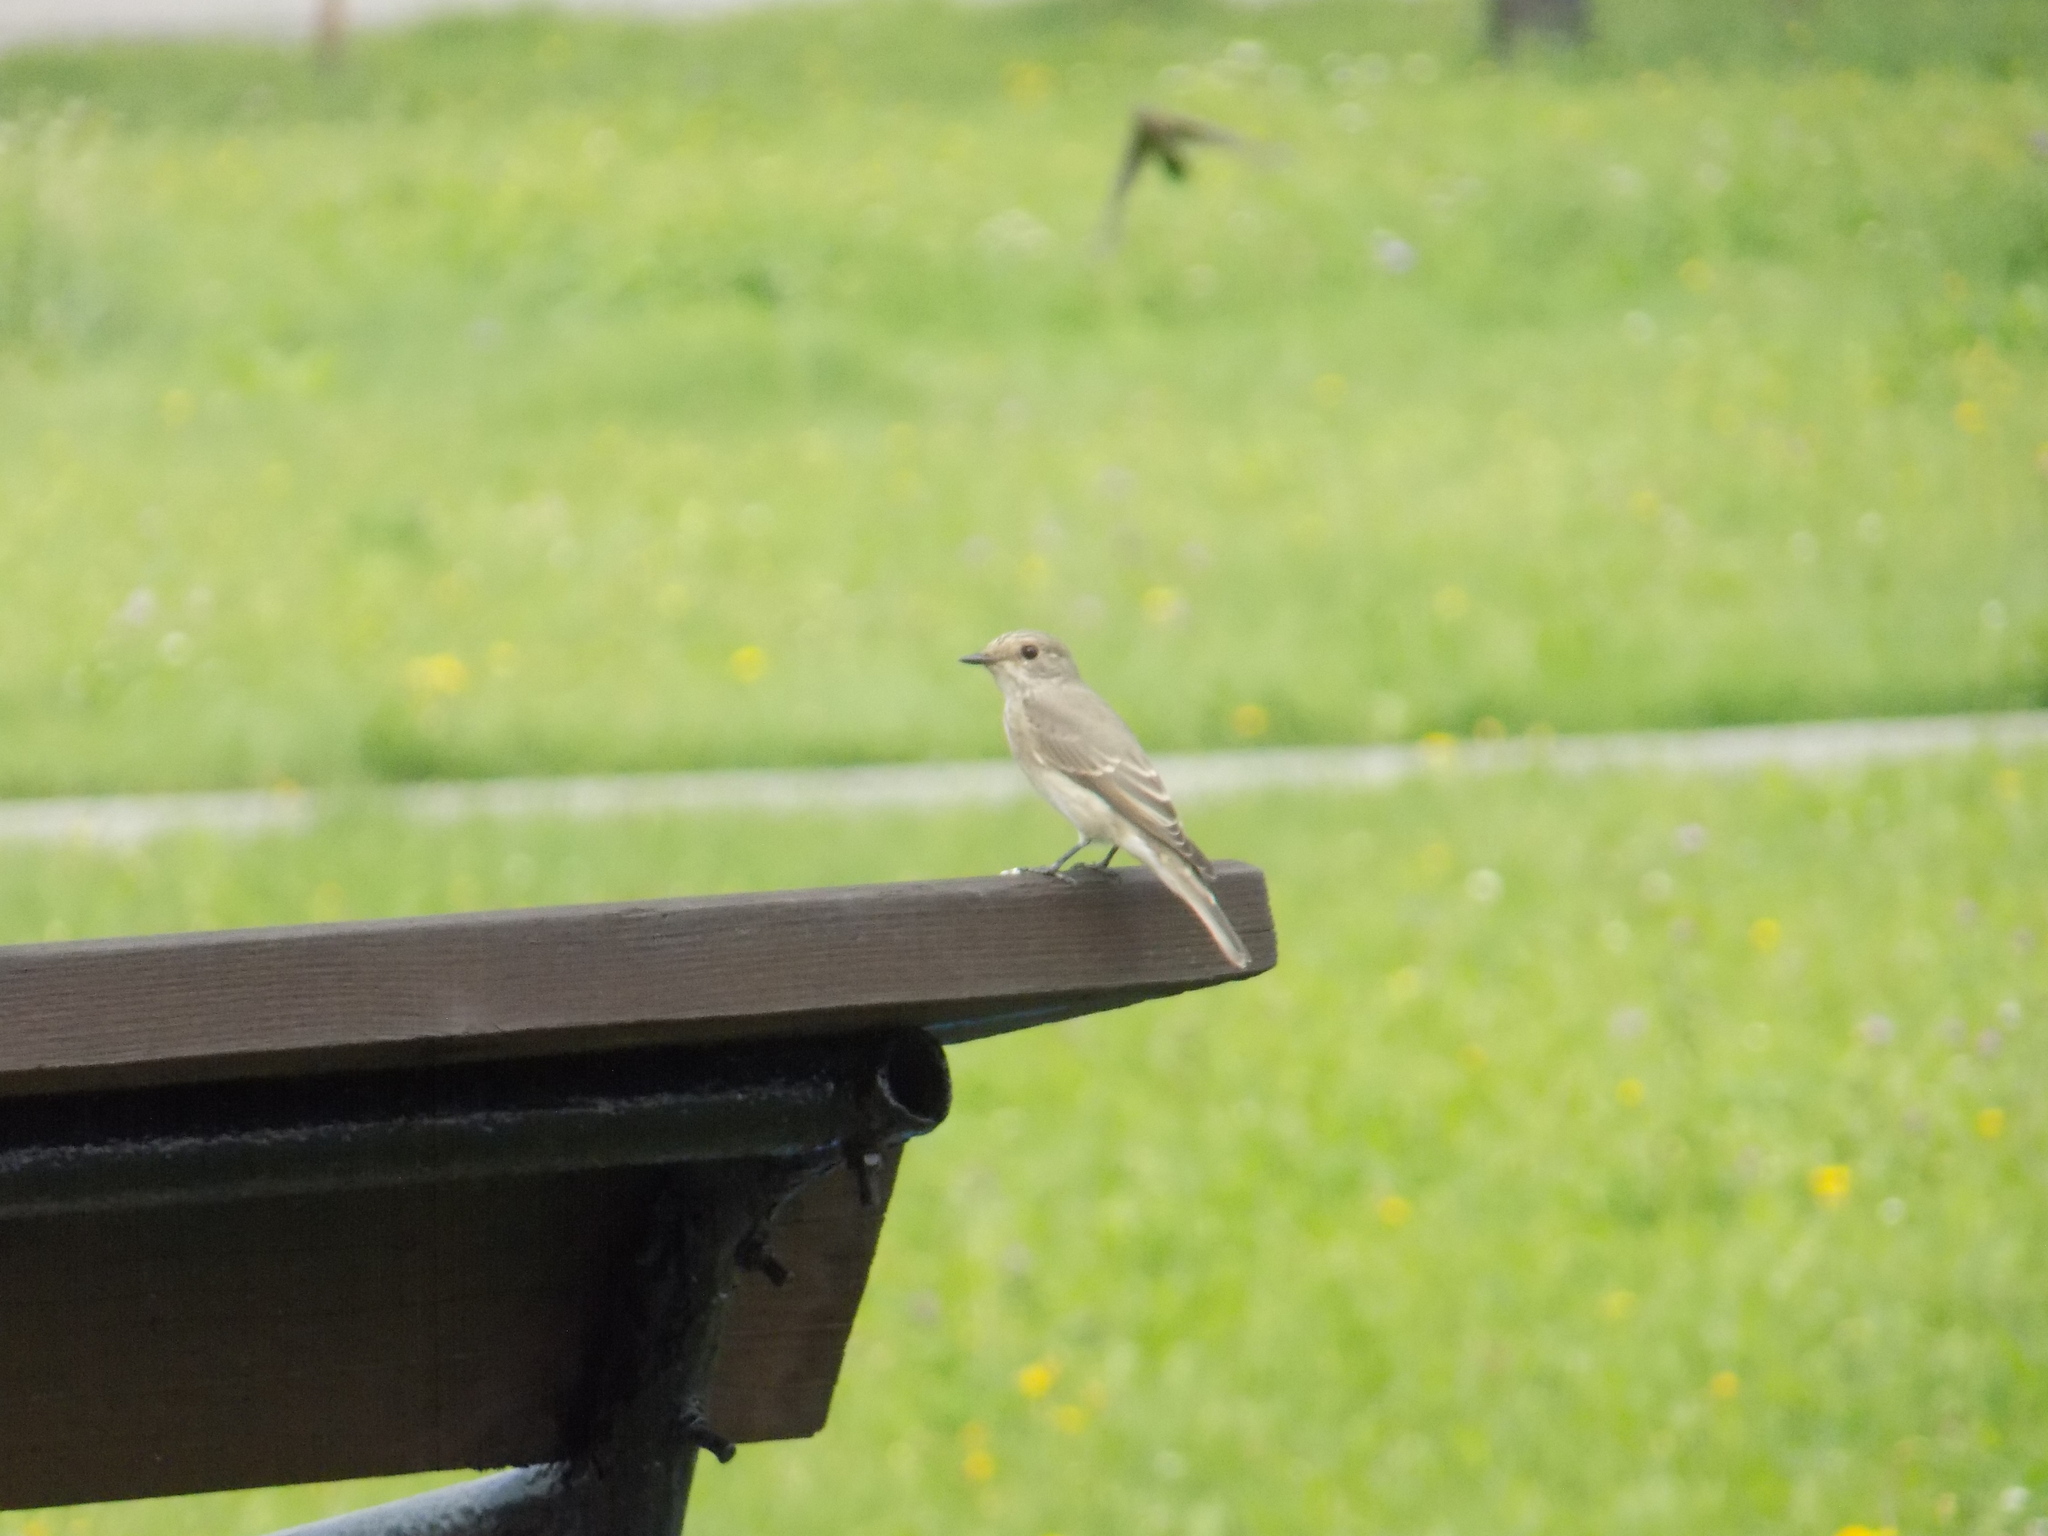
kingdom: Animalia
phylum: Chordata
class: Aves
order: Passeriformes
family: Muscicapidae
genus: Muscicapa
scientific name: Muscicapa striata
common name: Spotted flycatcher
